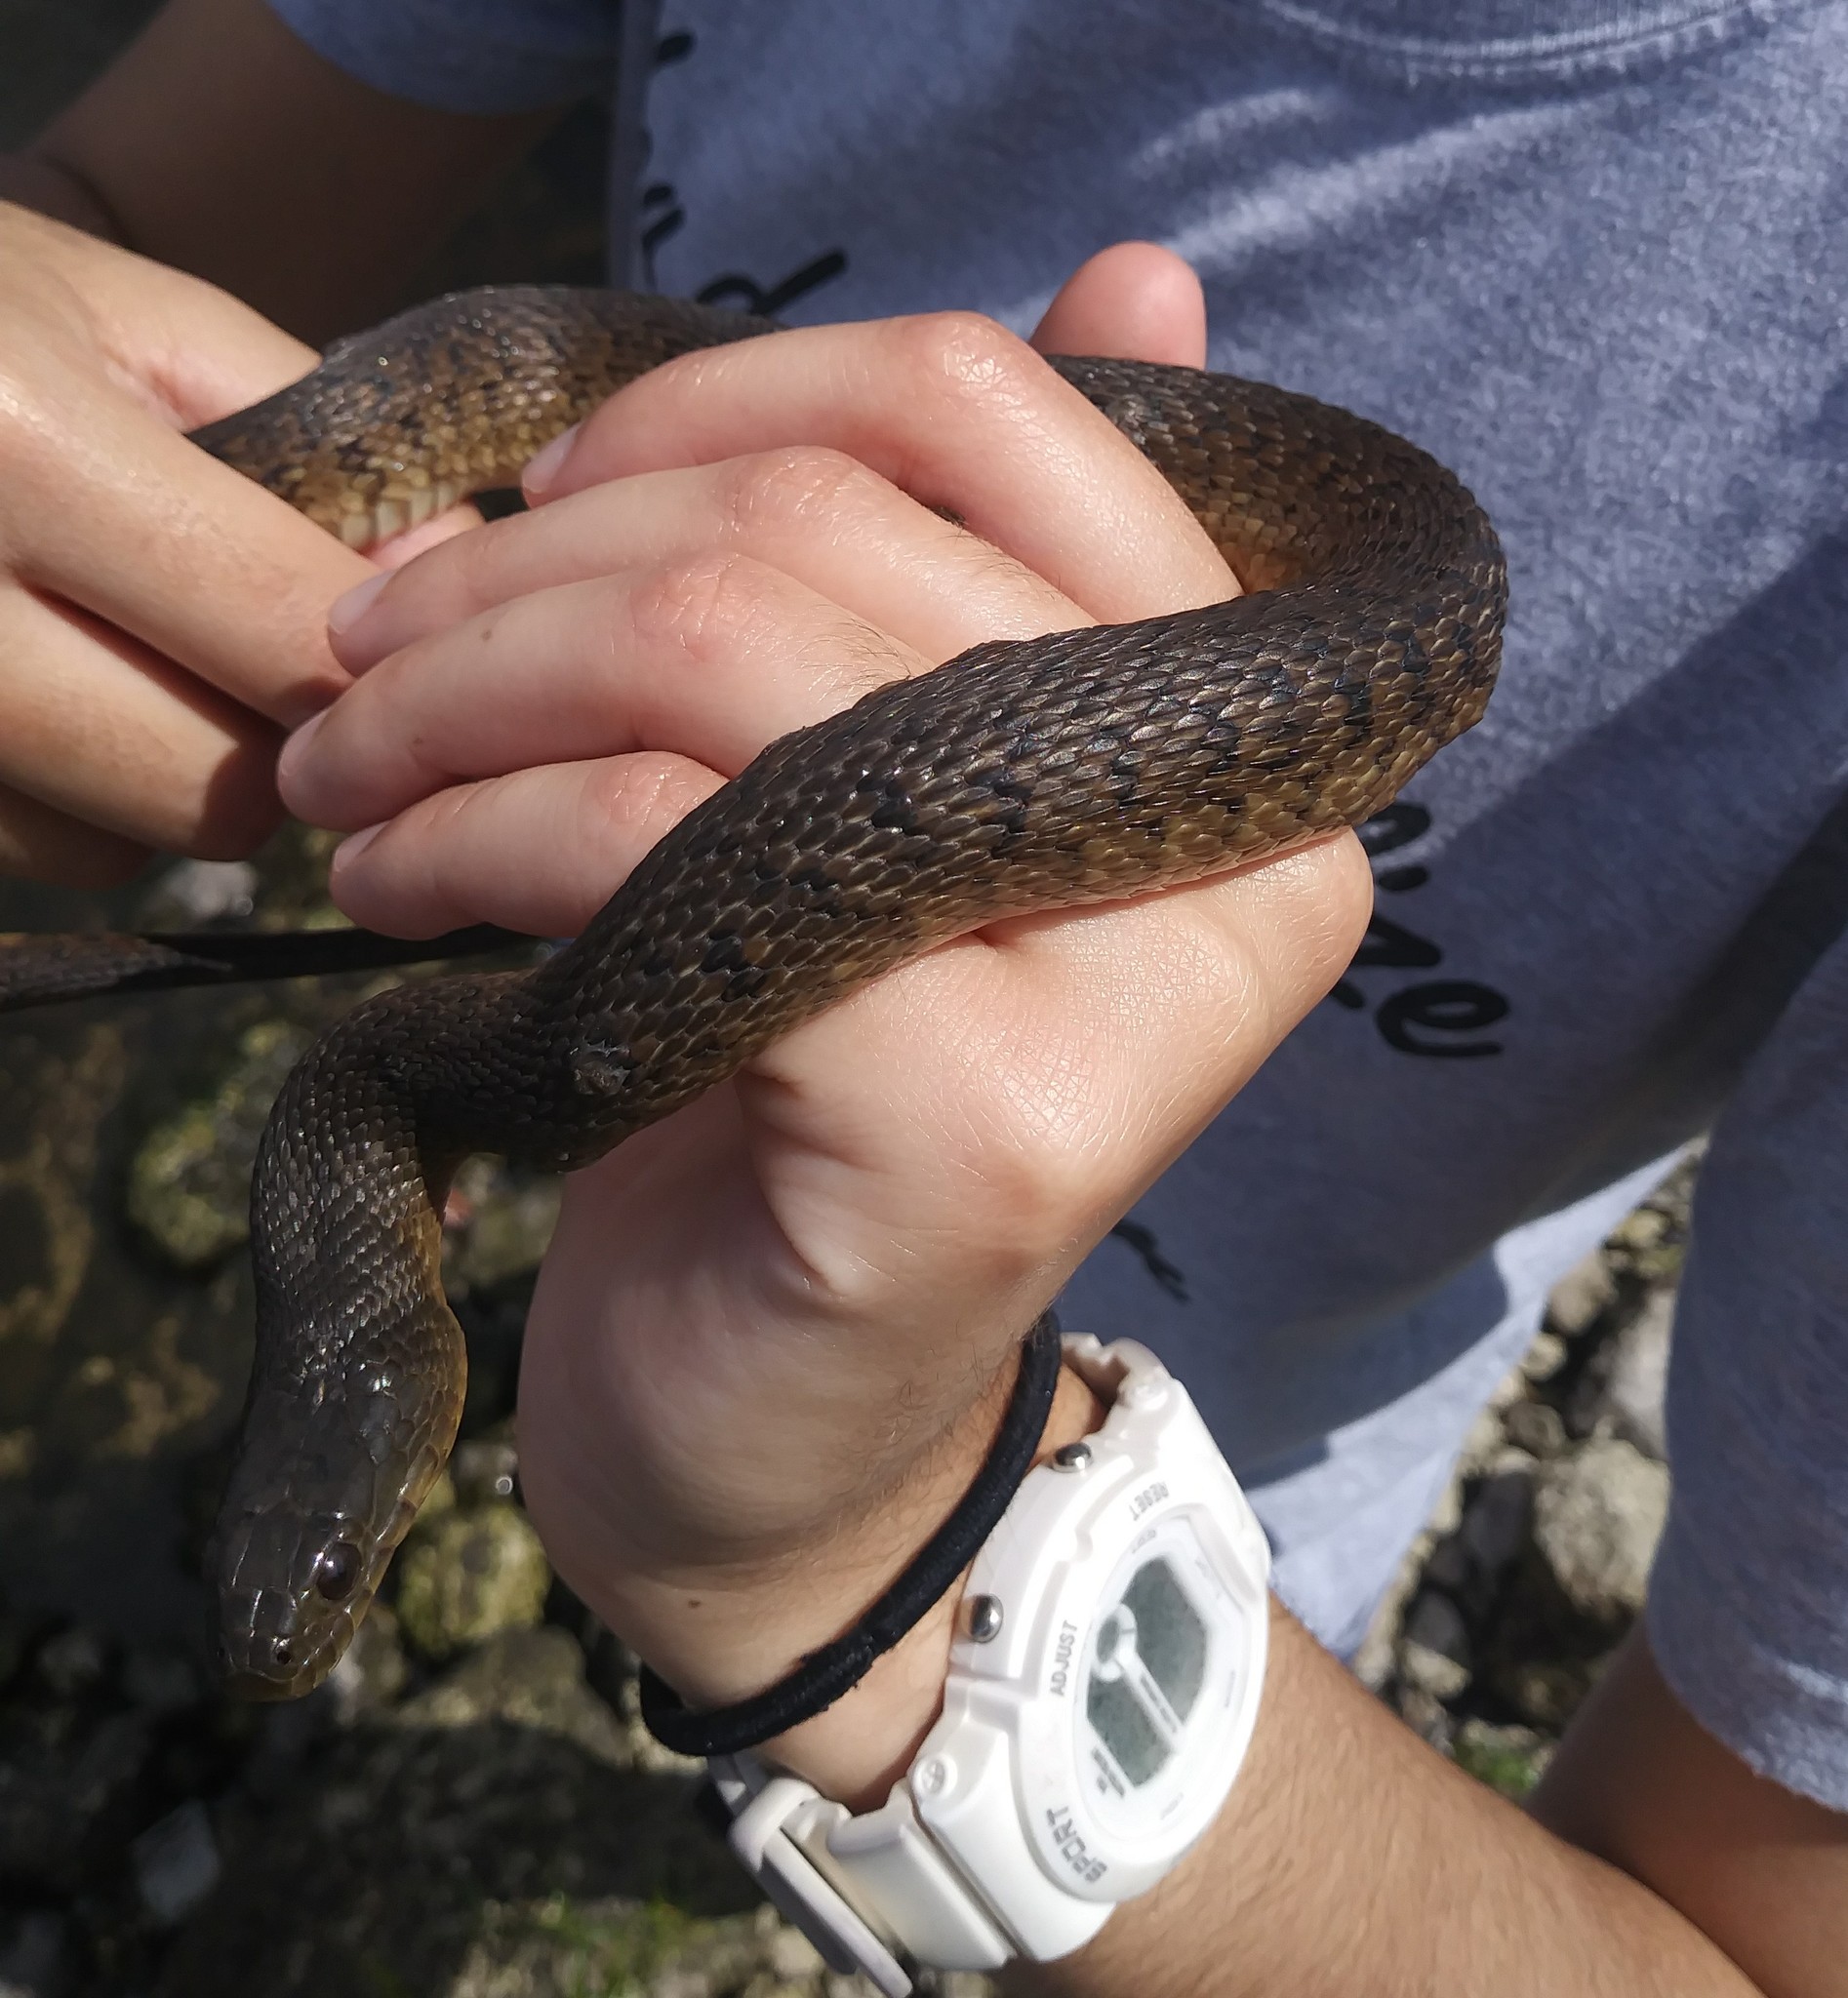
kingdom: Animalia
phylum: Chordata
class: Squamata
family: Colubridae
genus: Nerodia
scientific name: Nerodia floridana
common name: Florida green watersnake
